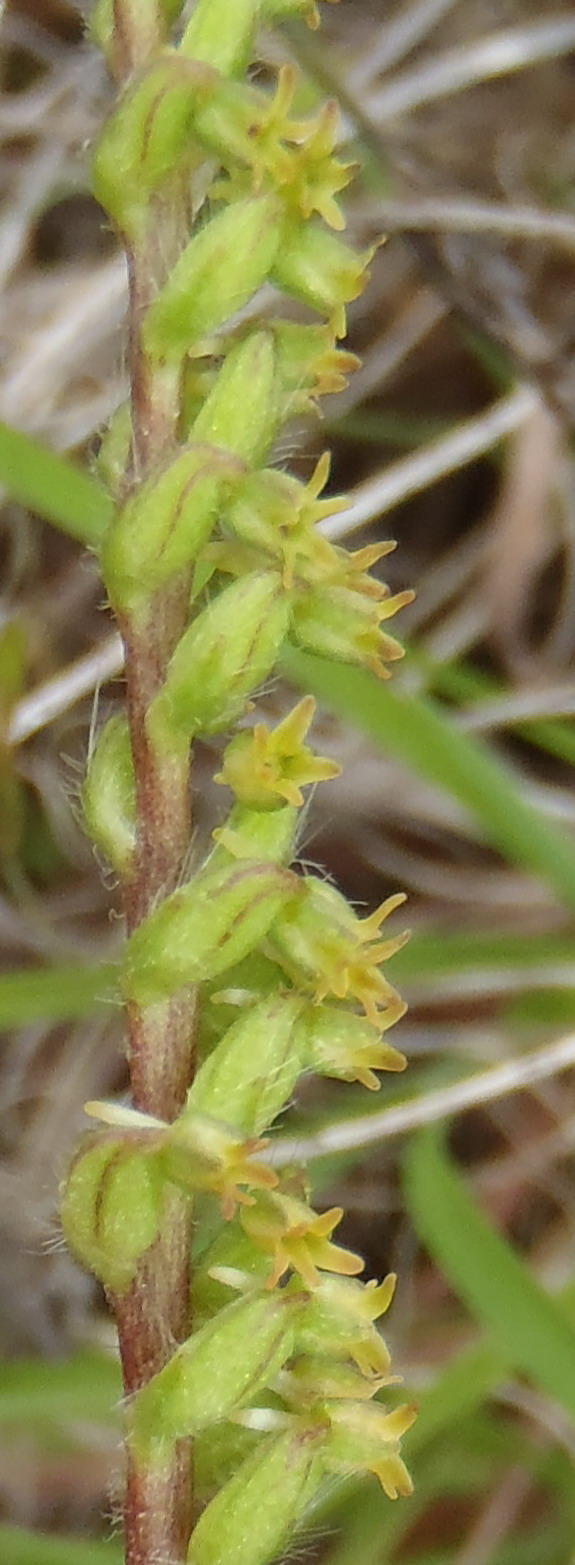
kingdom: Plantae
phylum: Tracheophyta
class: Liliopsida
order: Asparagales
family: Orchidaceae
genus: Holothrix
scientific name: Holothrix villosa
